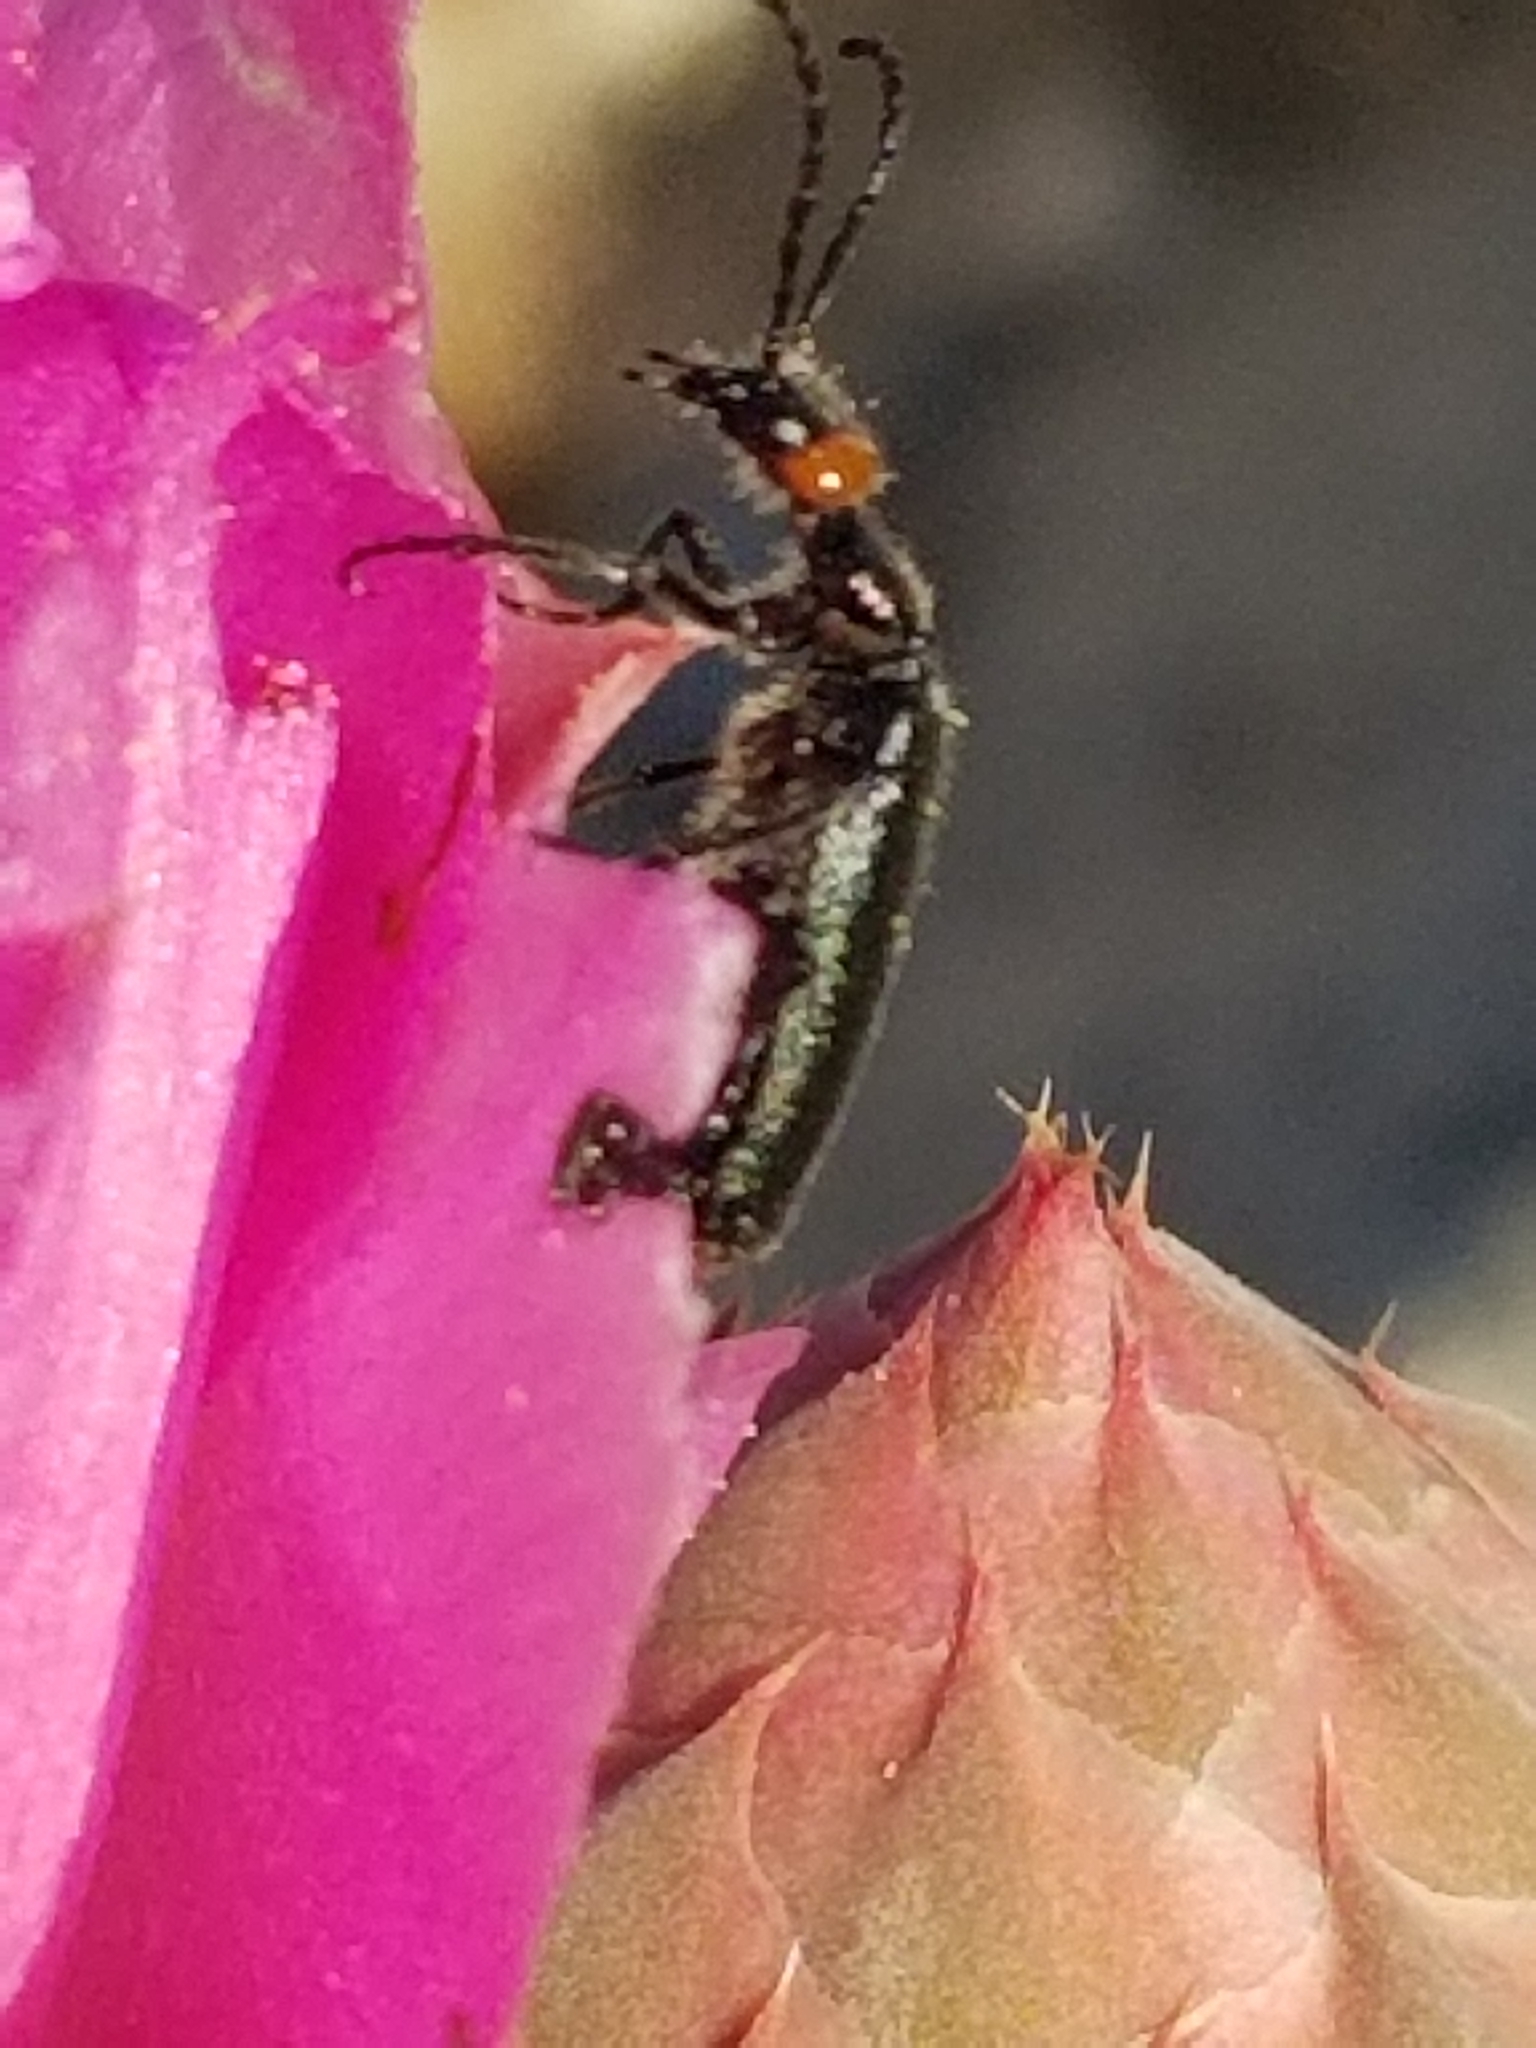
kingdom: Animalia
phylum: Arthropoda
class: Insecta
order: Coleoptera
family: Meloidae
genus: Lytta
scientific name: Lytta auriculata
